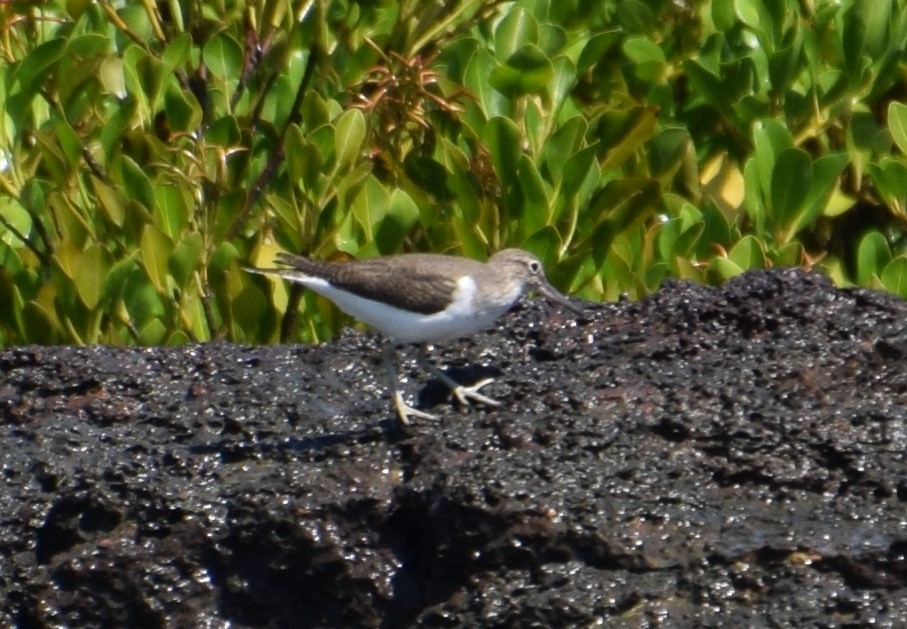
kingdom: Animalia
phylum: Chordata
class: Aves
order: Charadriiformes
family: Scolopacidae
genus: Actitis
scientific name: Actitis hypoleucos
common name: Common sandpiper
